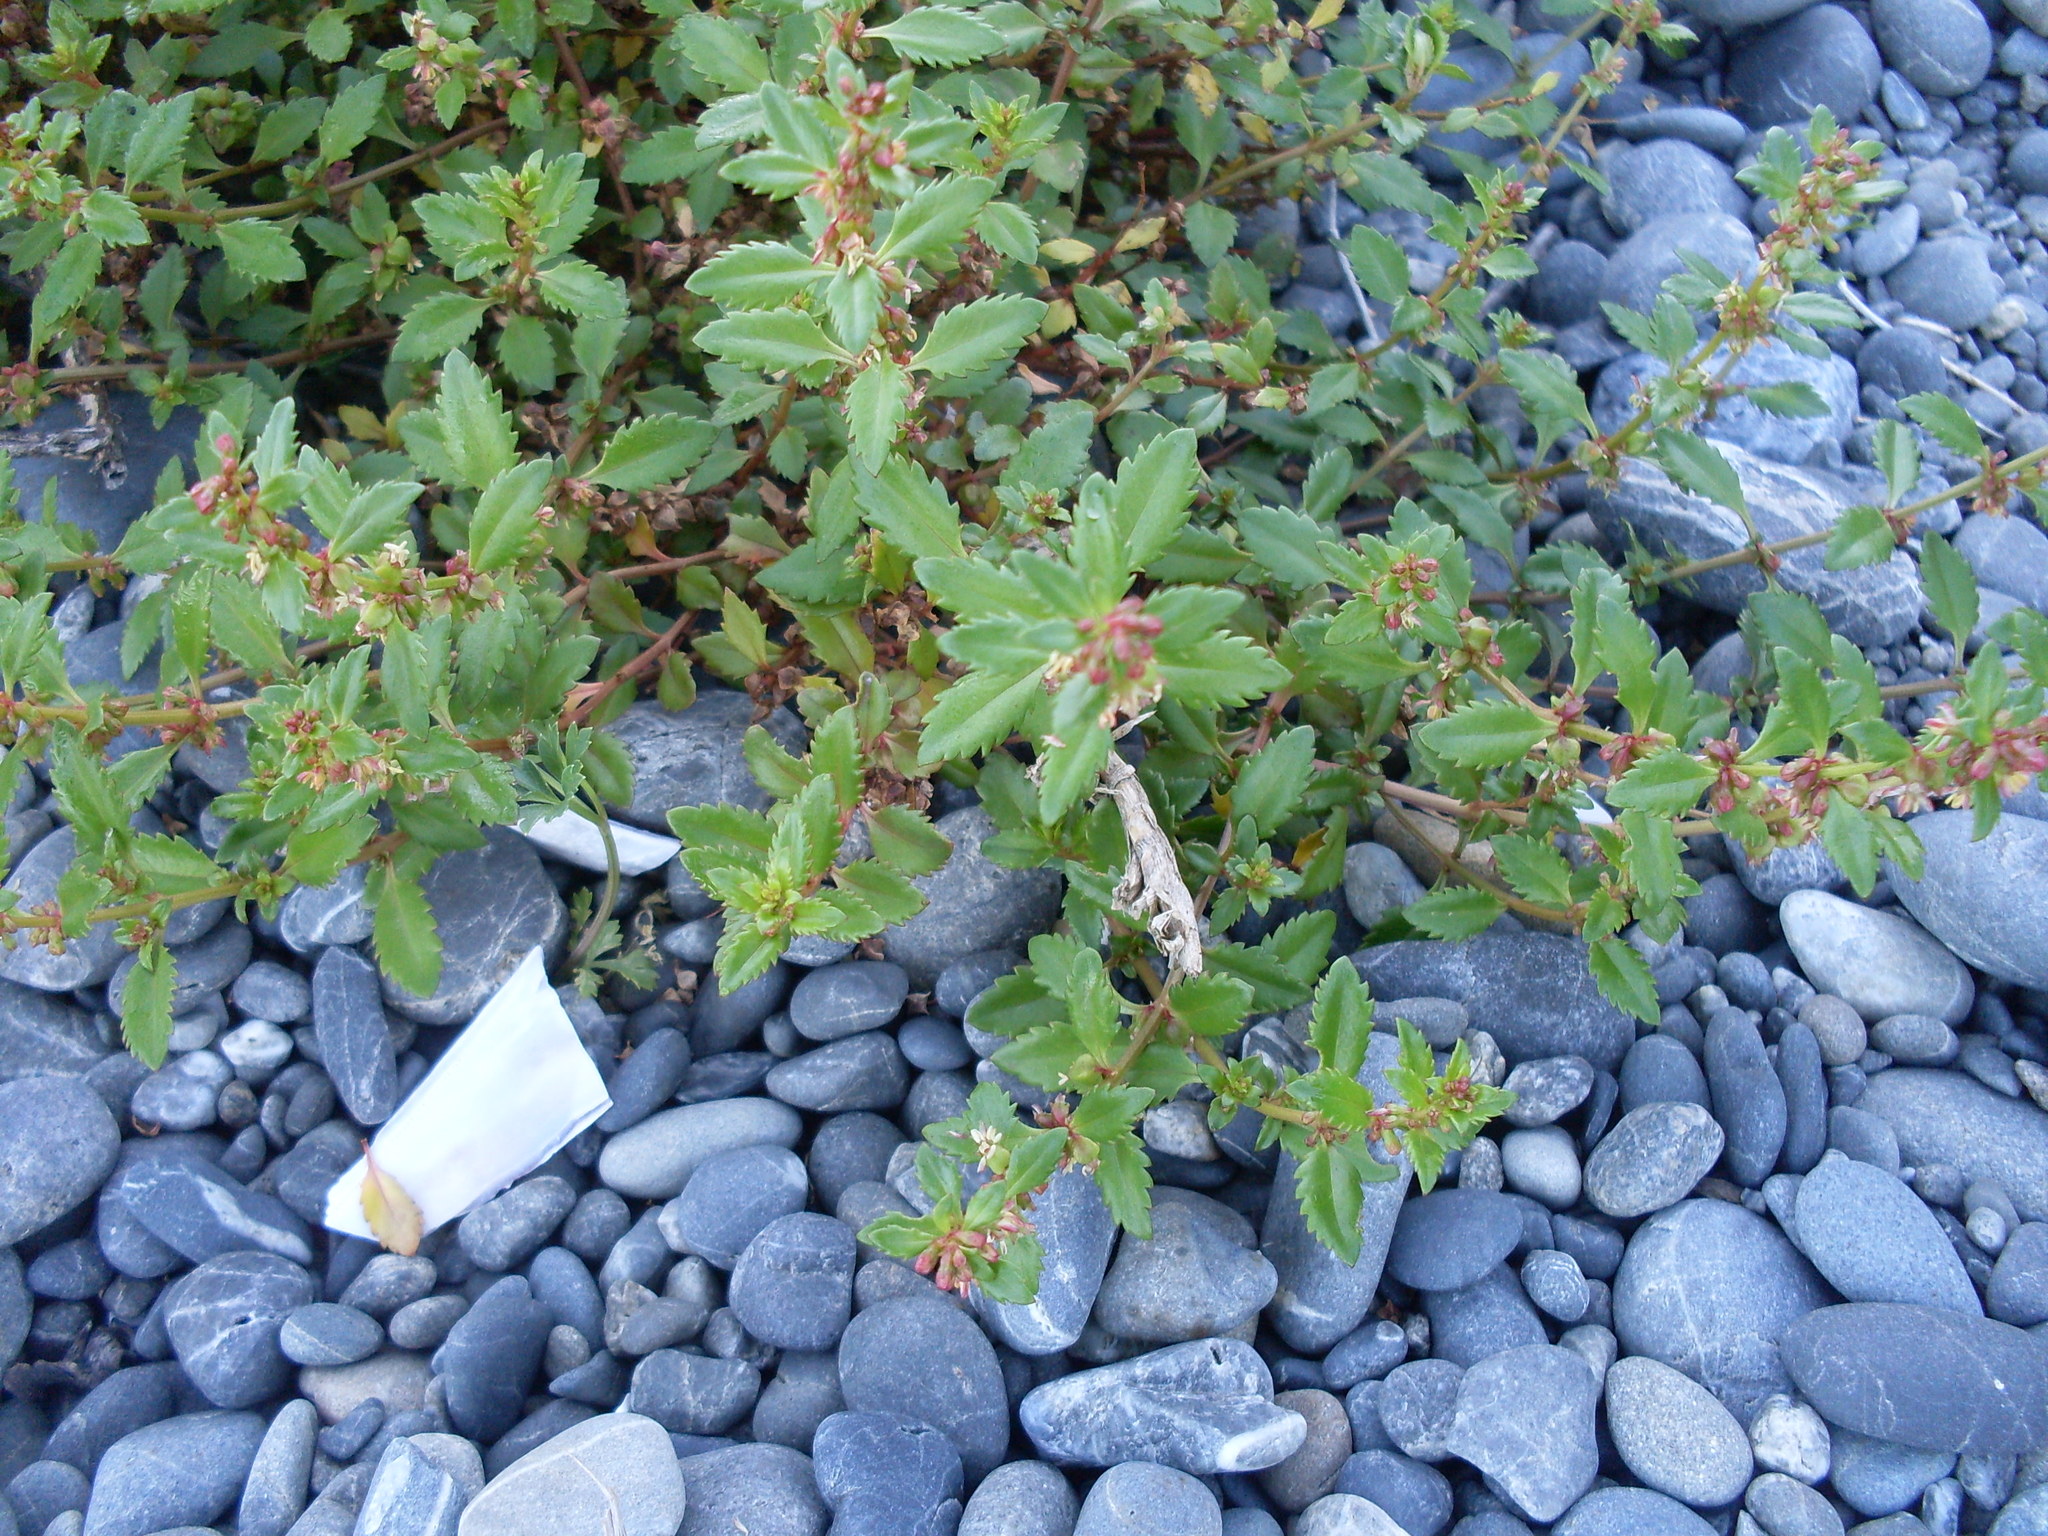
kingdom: Plantae
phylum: Tracheophyta
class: Magnoliopsida
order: Saxifragales
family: Haloragaceae
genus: Haloragis
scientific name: Haloragis erecta
